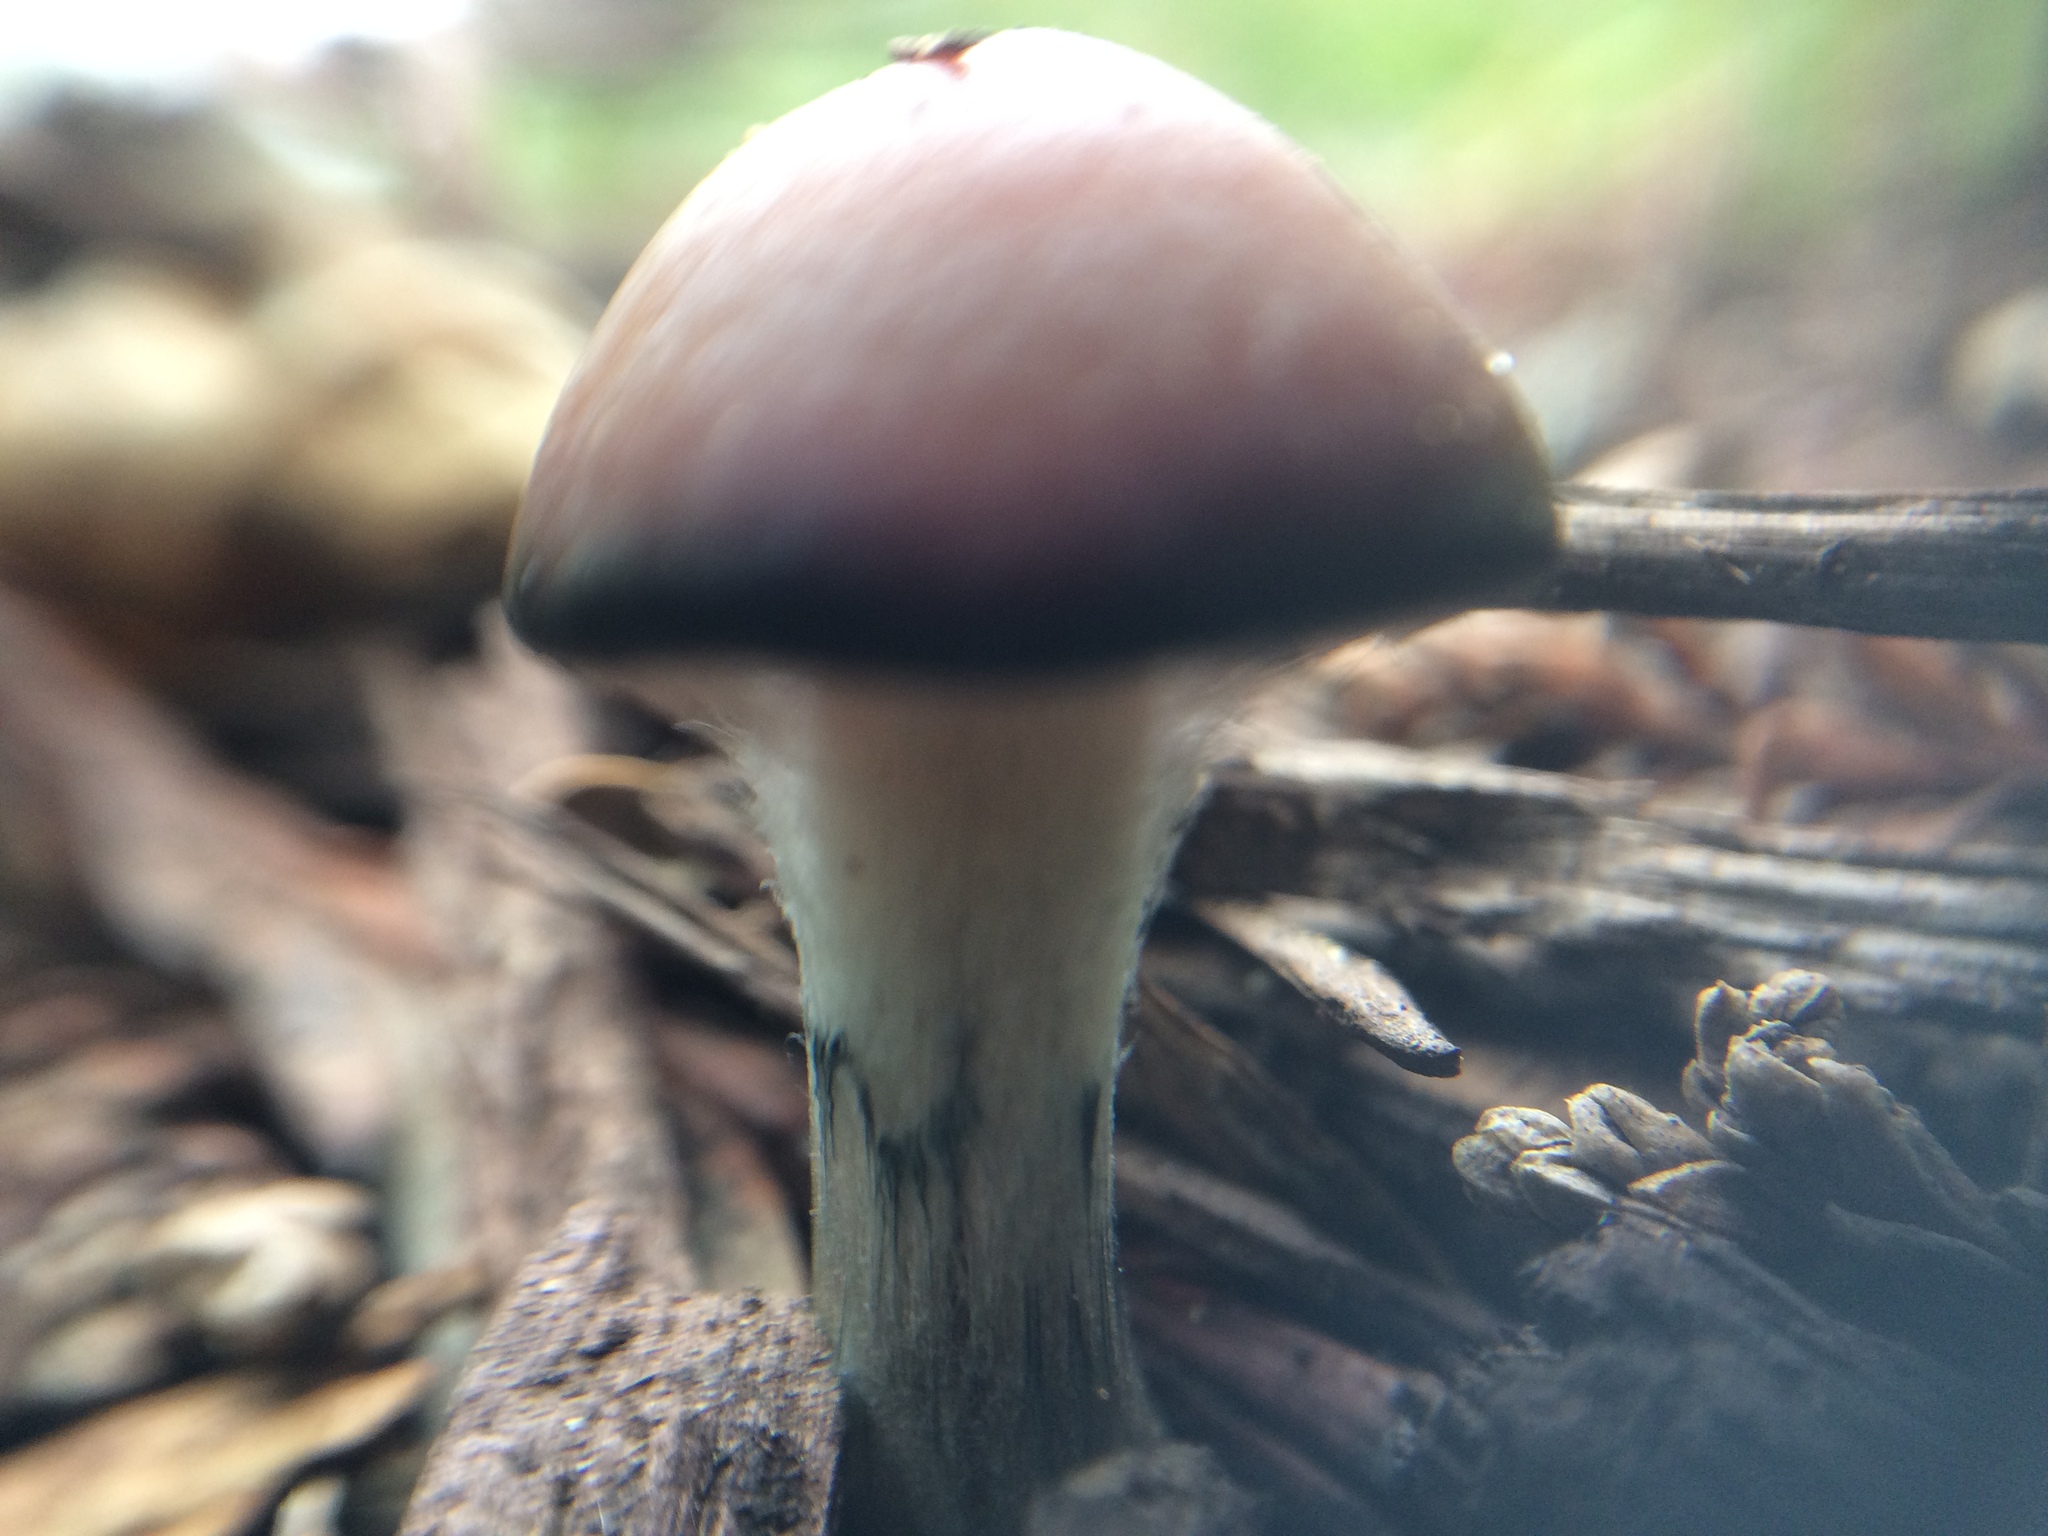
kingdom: Fungi
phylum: Basidiomycota
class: Agaricomycetes
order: Agaricales
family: Hymenogastraceae
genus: Psilocybe
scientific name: Psilocybe cyanescens
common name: Blueleg brownie
